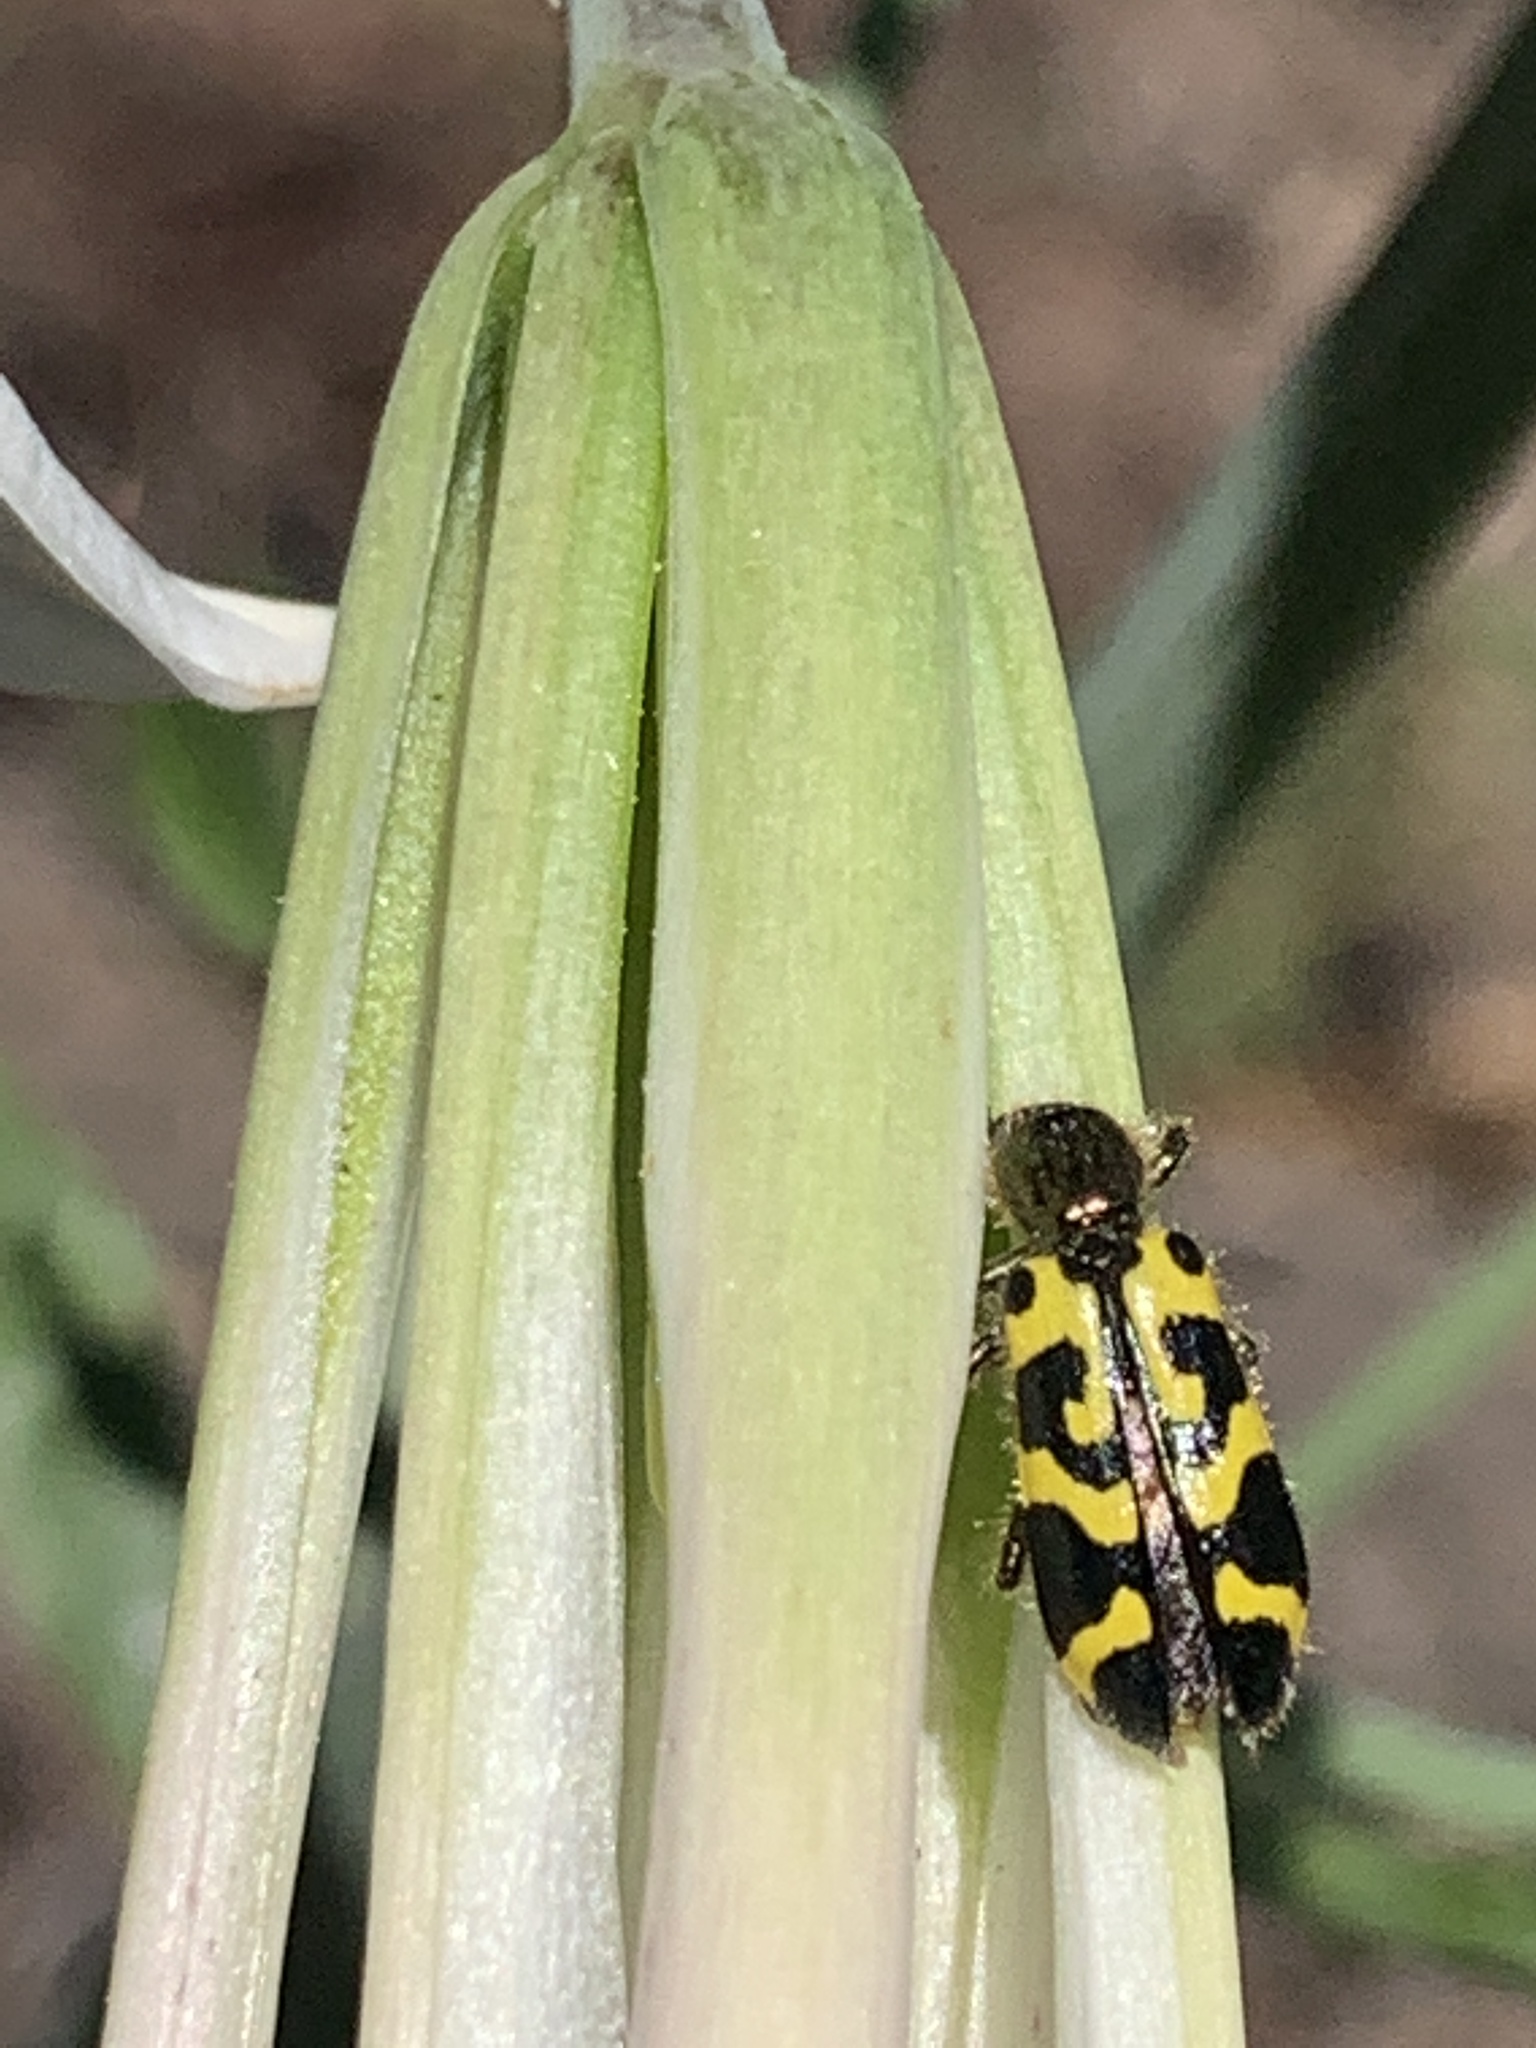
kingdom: Animalia
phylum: Arthropoda
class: Insecta
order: Coleoptera
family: Cleridae
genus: Trichodes
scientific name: Trichodes ornatus
